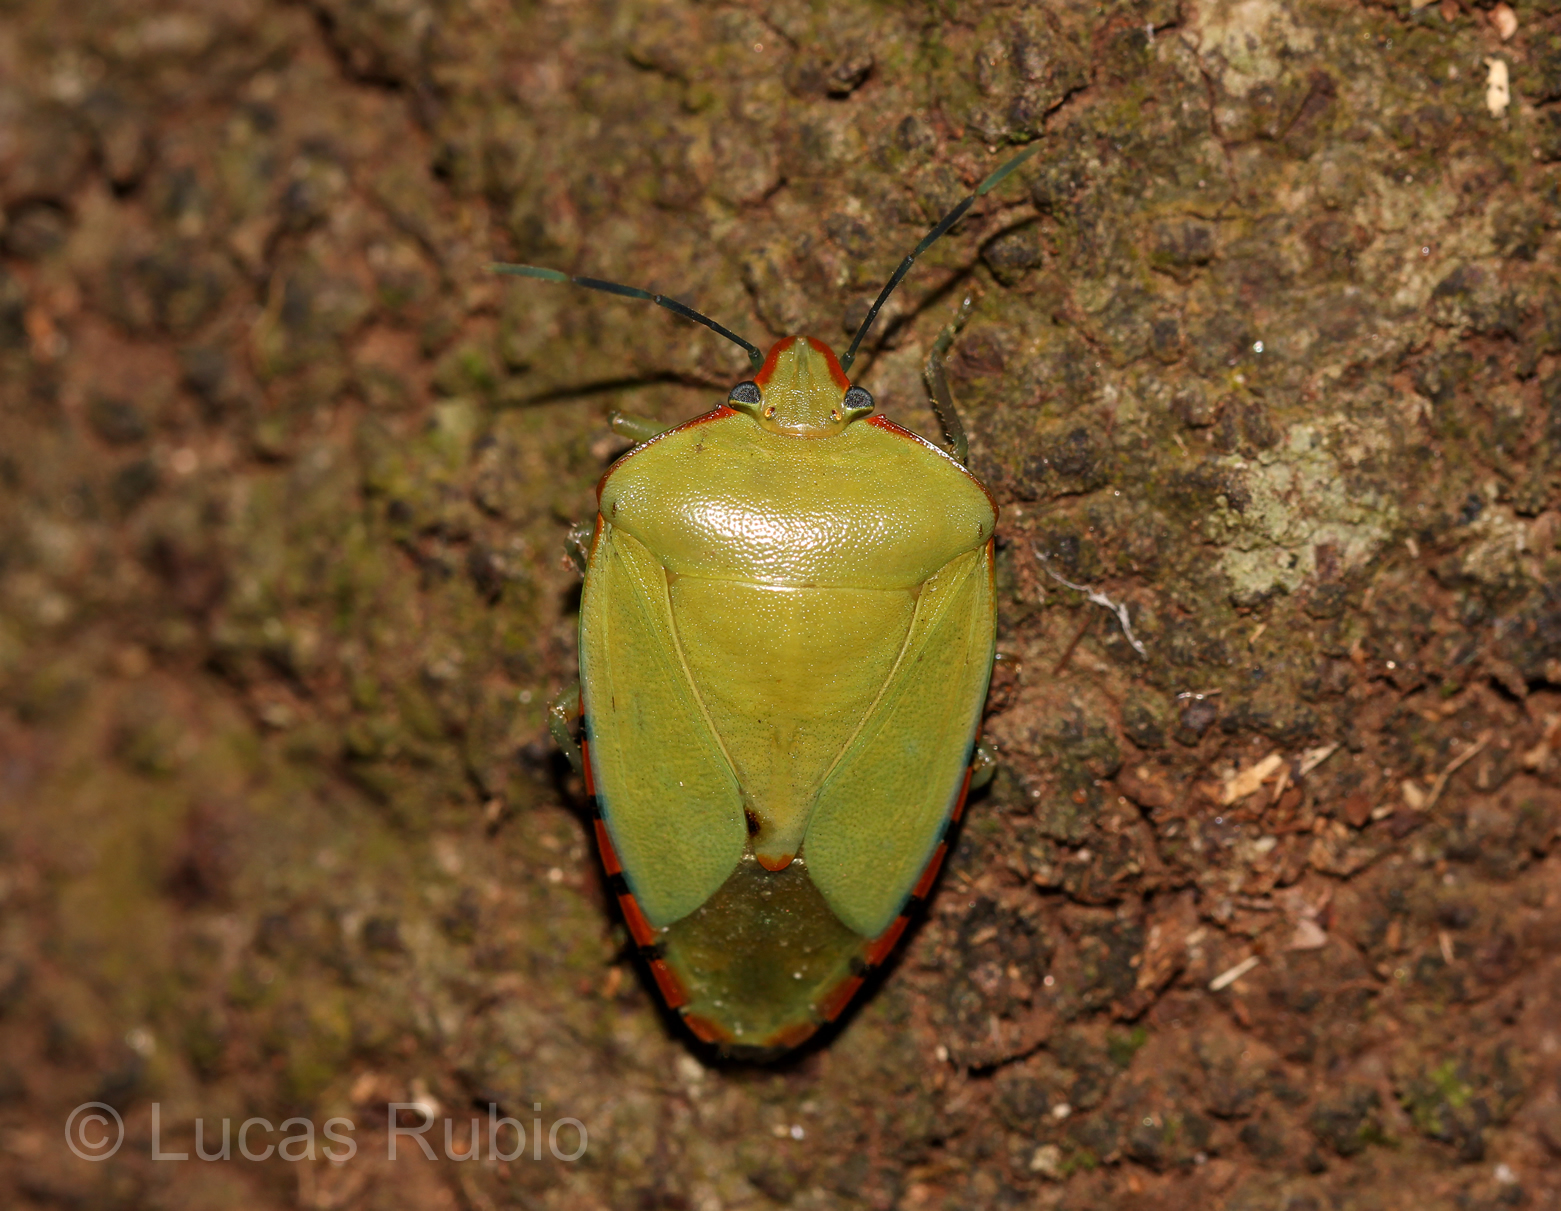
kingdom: Animalia
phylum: Arthropoda
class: Insecta
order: Hemiptera
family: Pentatomidae
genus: Chinavia
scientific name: Chinavia runaspis
